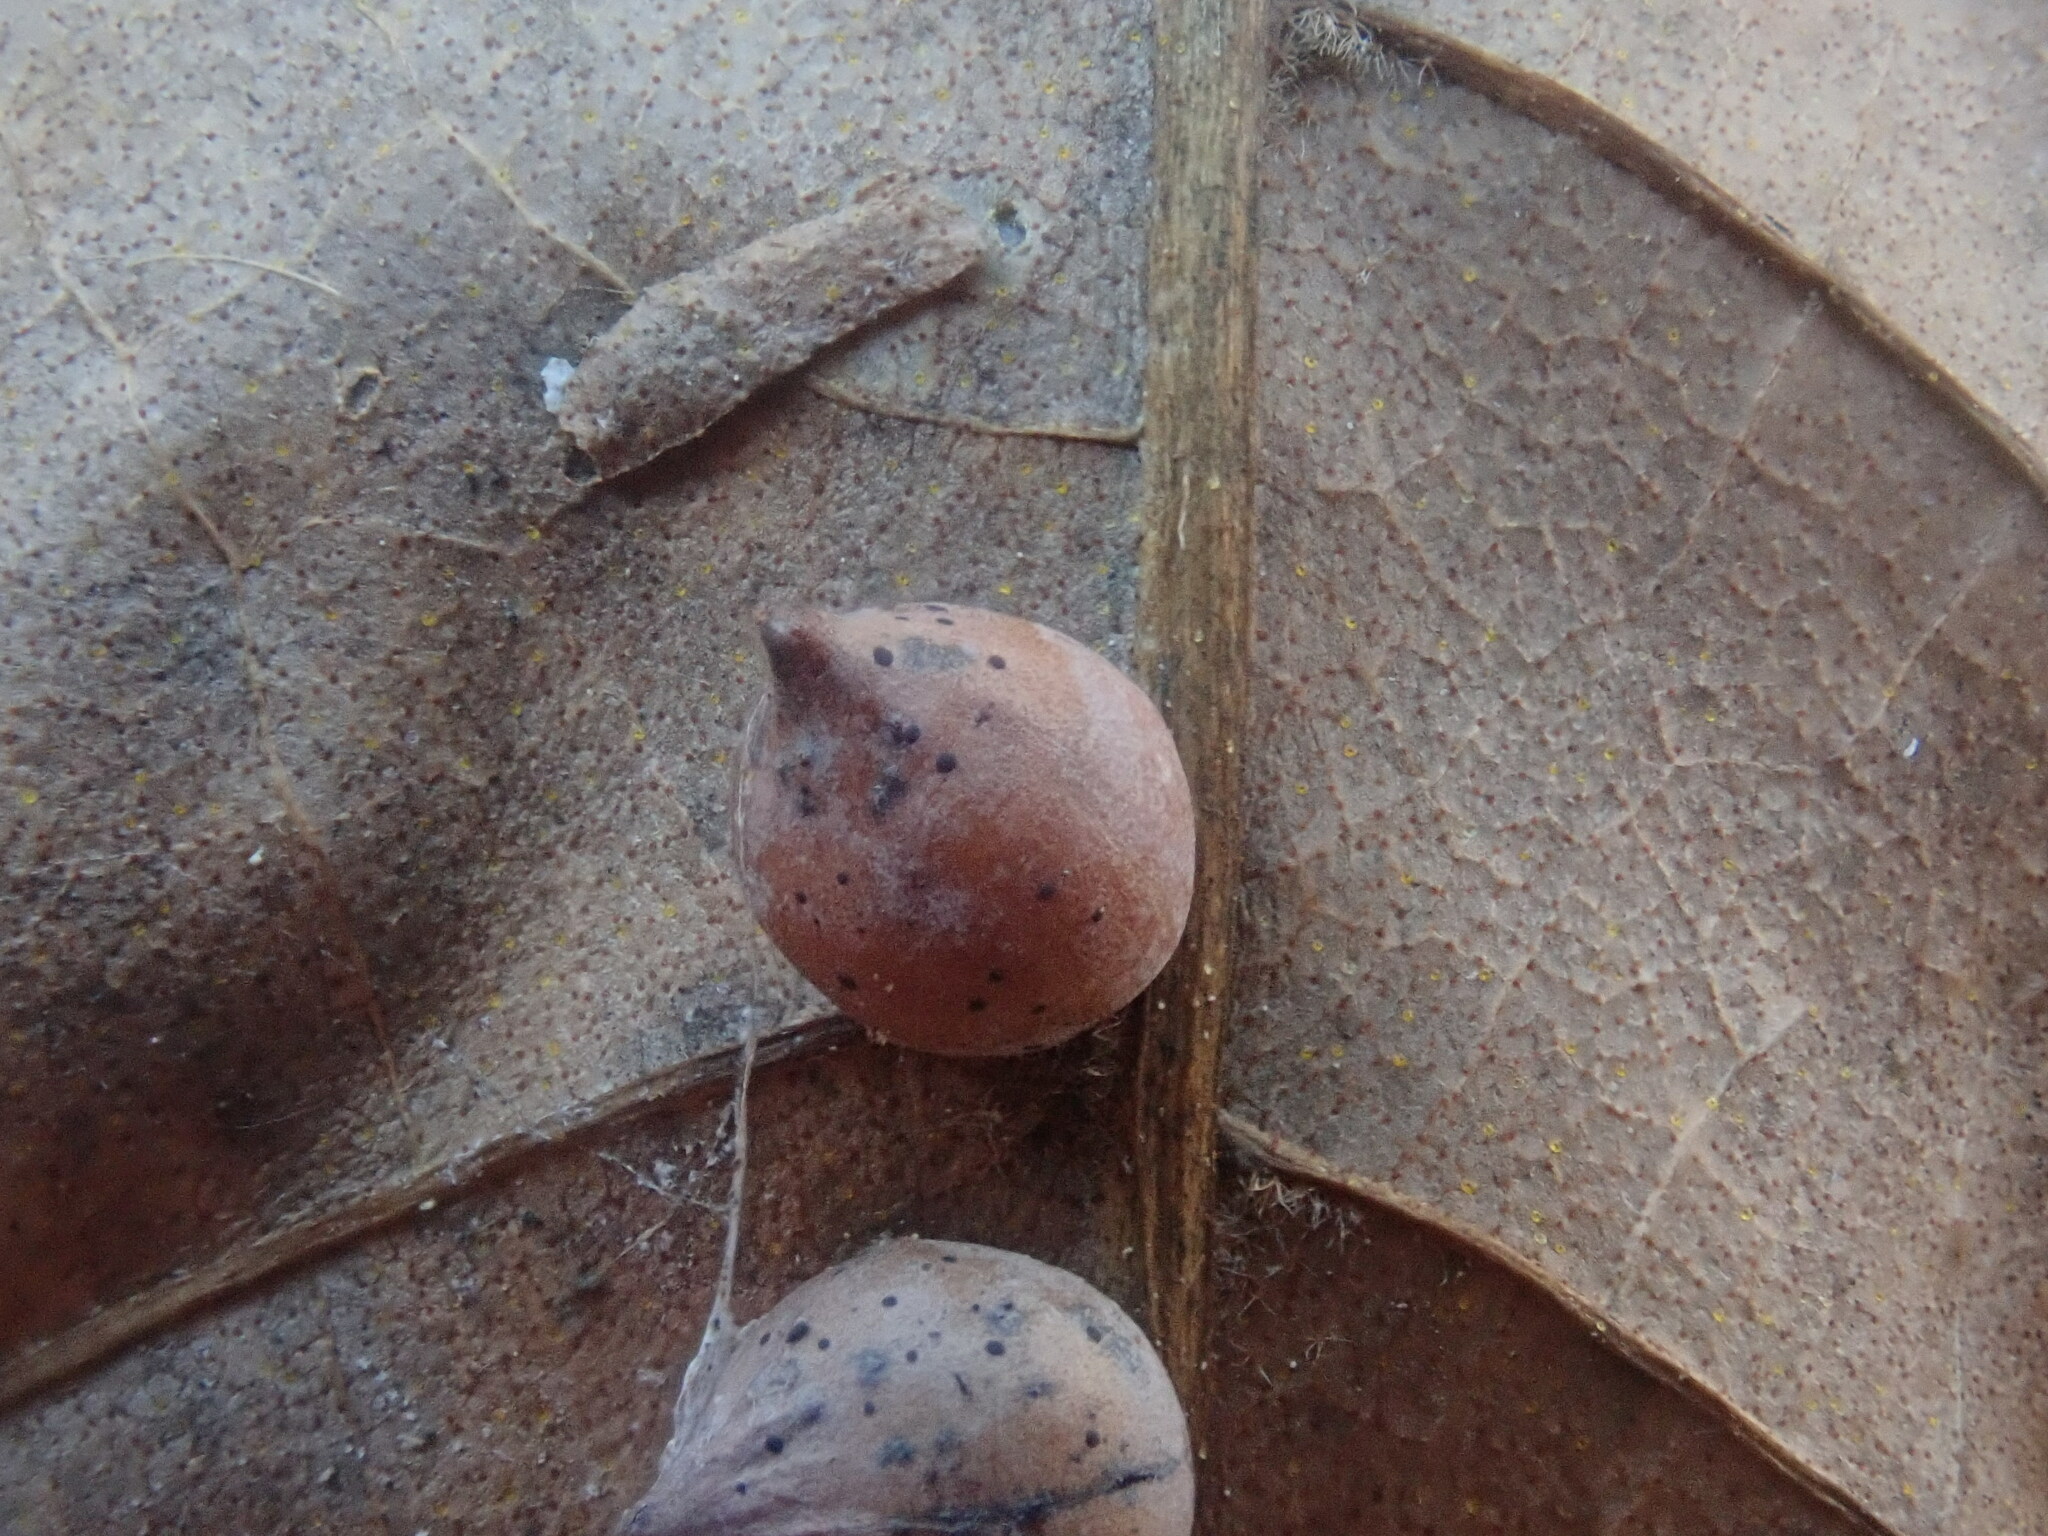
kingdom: Animalia
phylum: Arthropoda
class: Insecta
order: Diptera
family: Cecidomyiidae
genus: Caryomyia
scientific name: Caryomyia caryaecola
